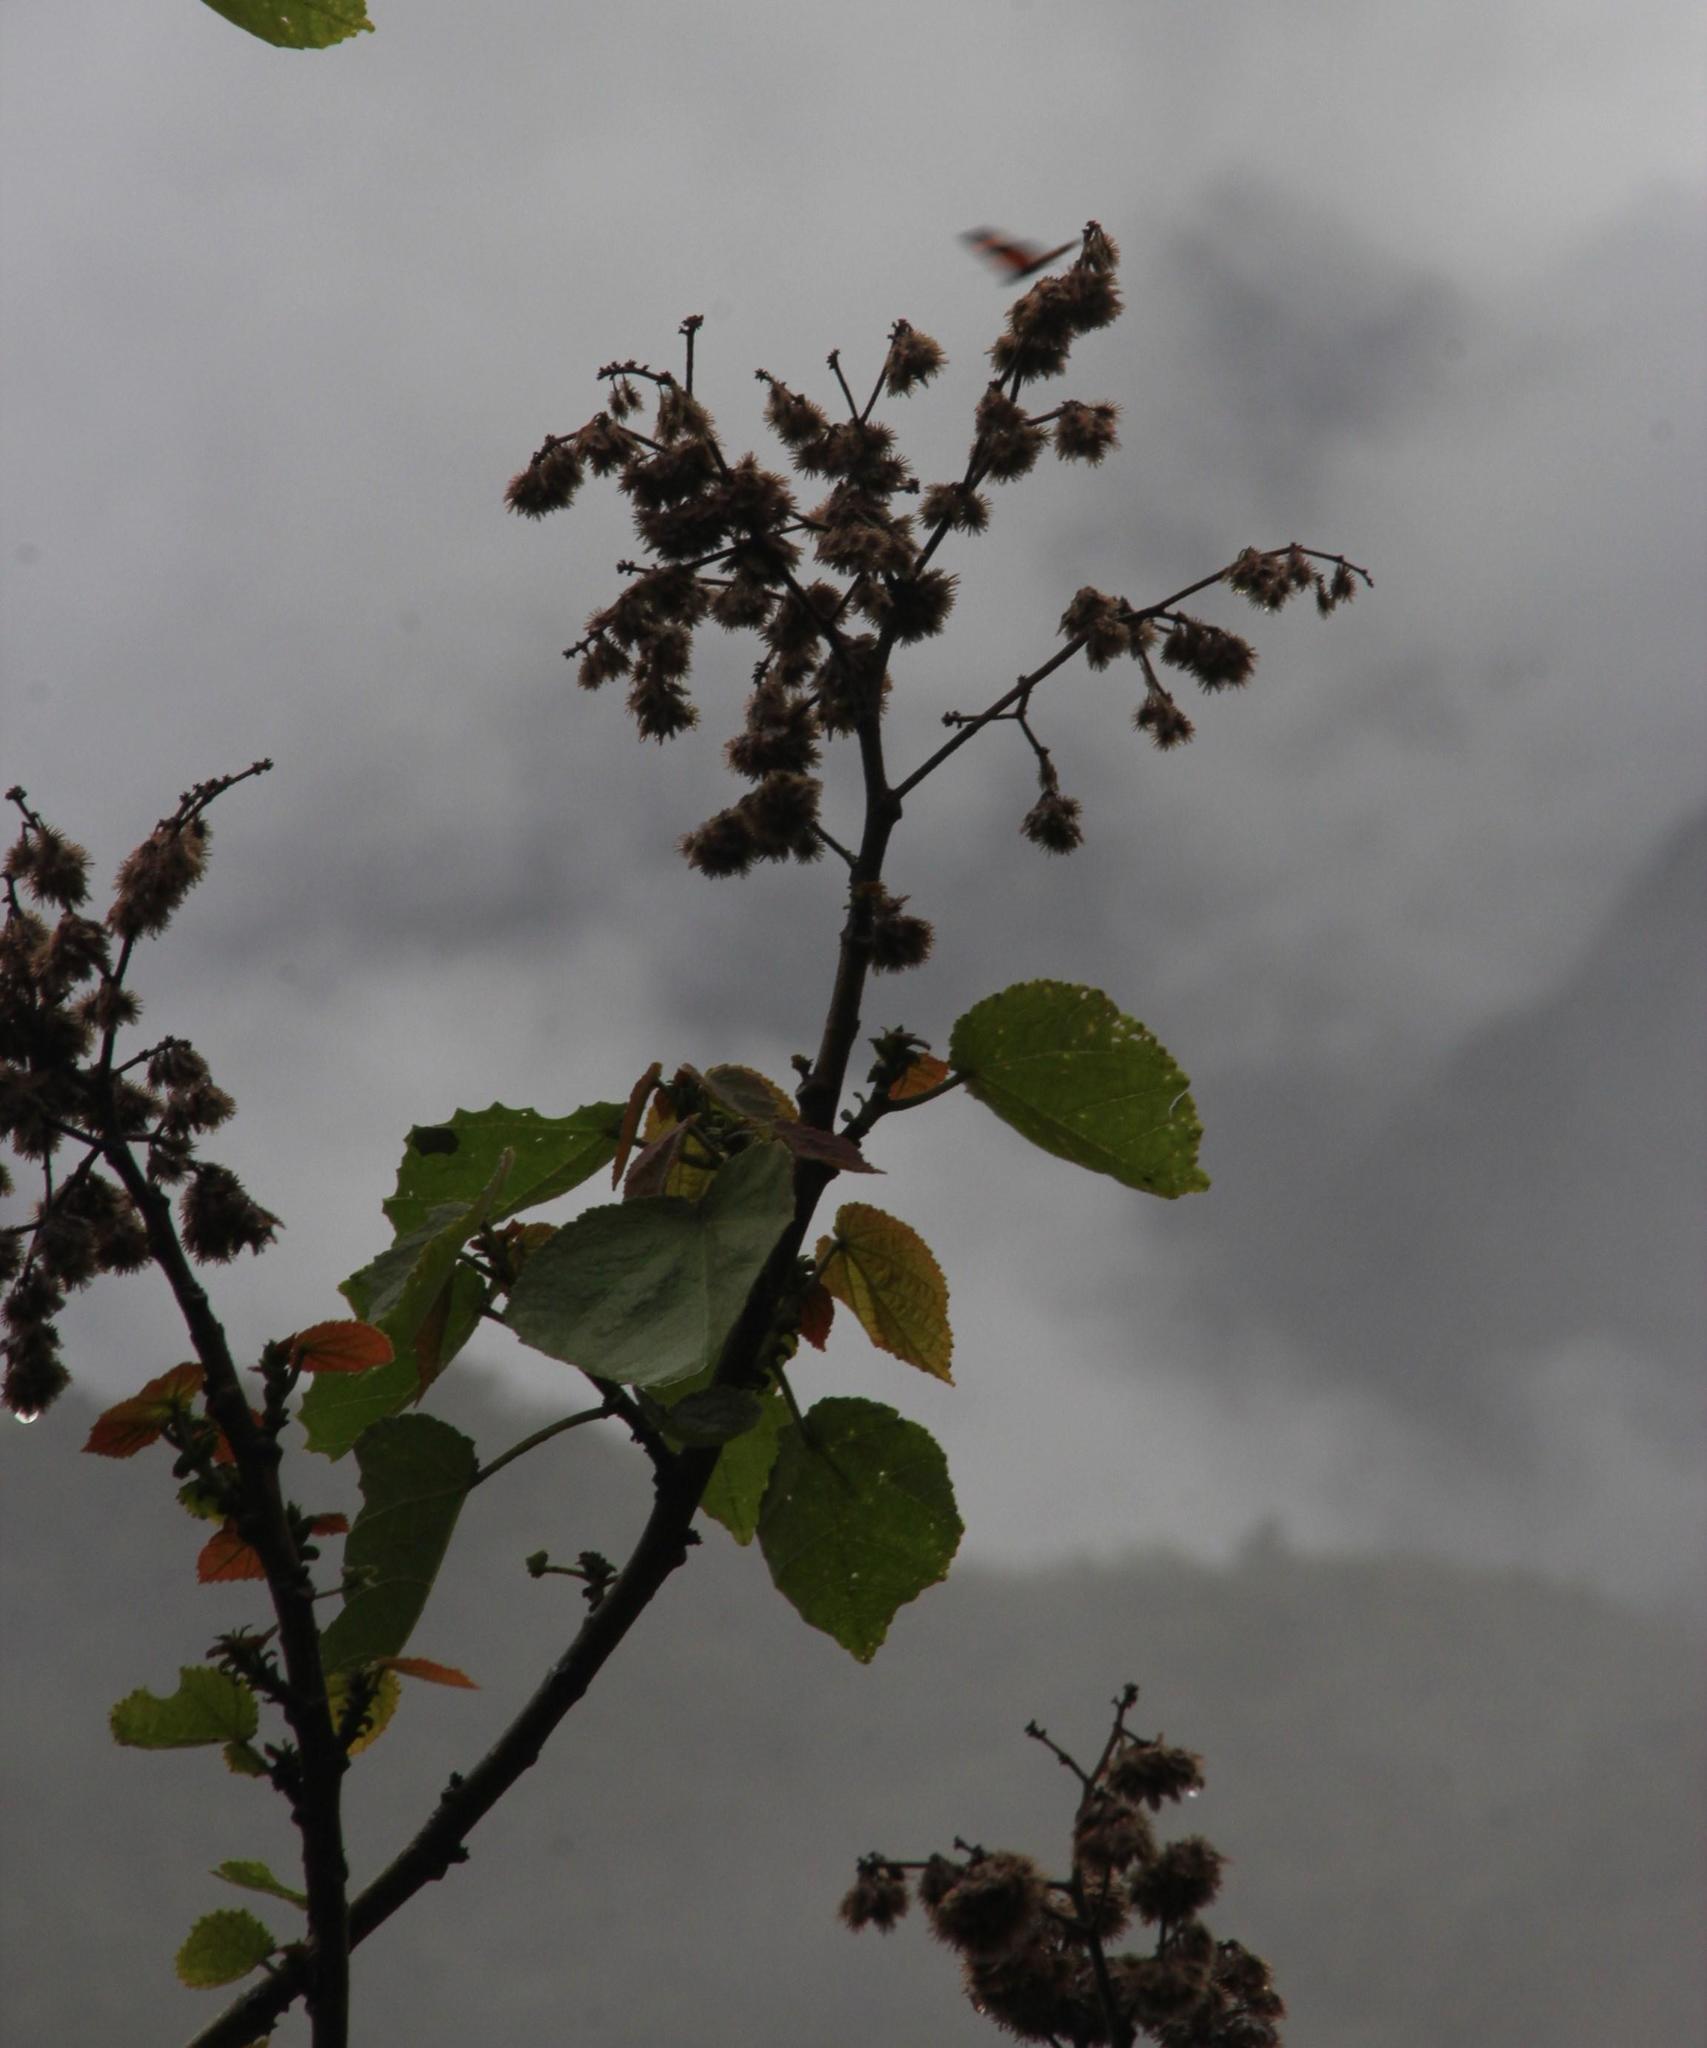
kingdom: Plantae
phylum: Tracheophyta
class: Magnoliopsida
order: Malvales
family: Malvaceae
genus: Heliocarpus
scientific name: Heliocarpus americanus
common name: White moho
